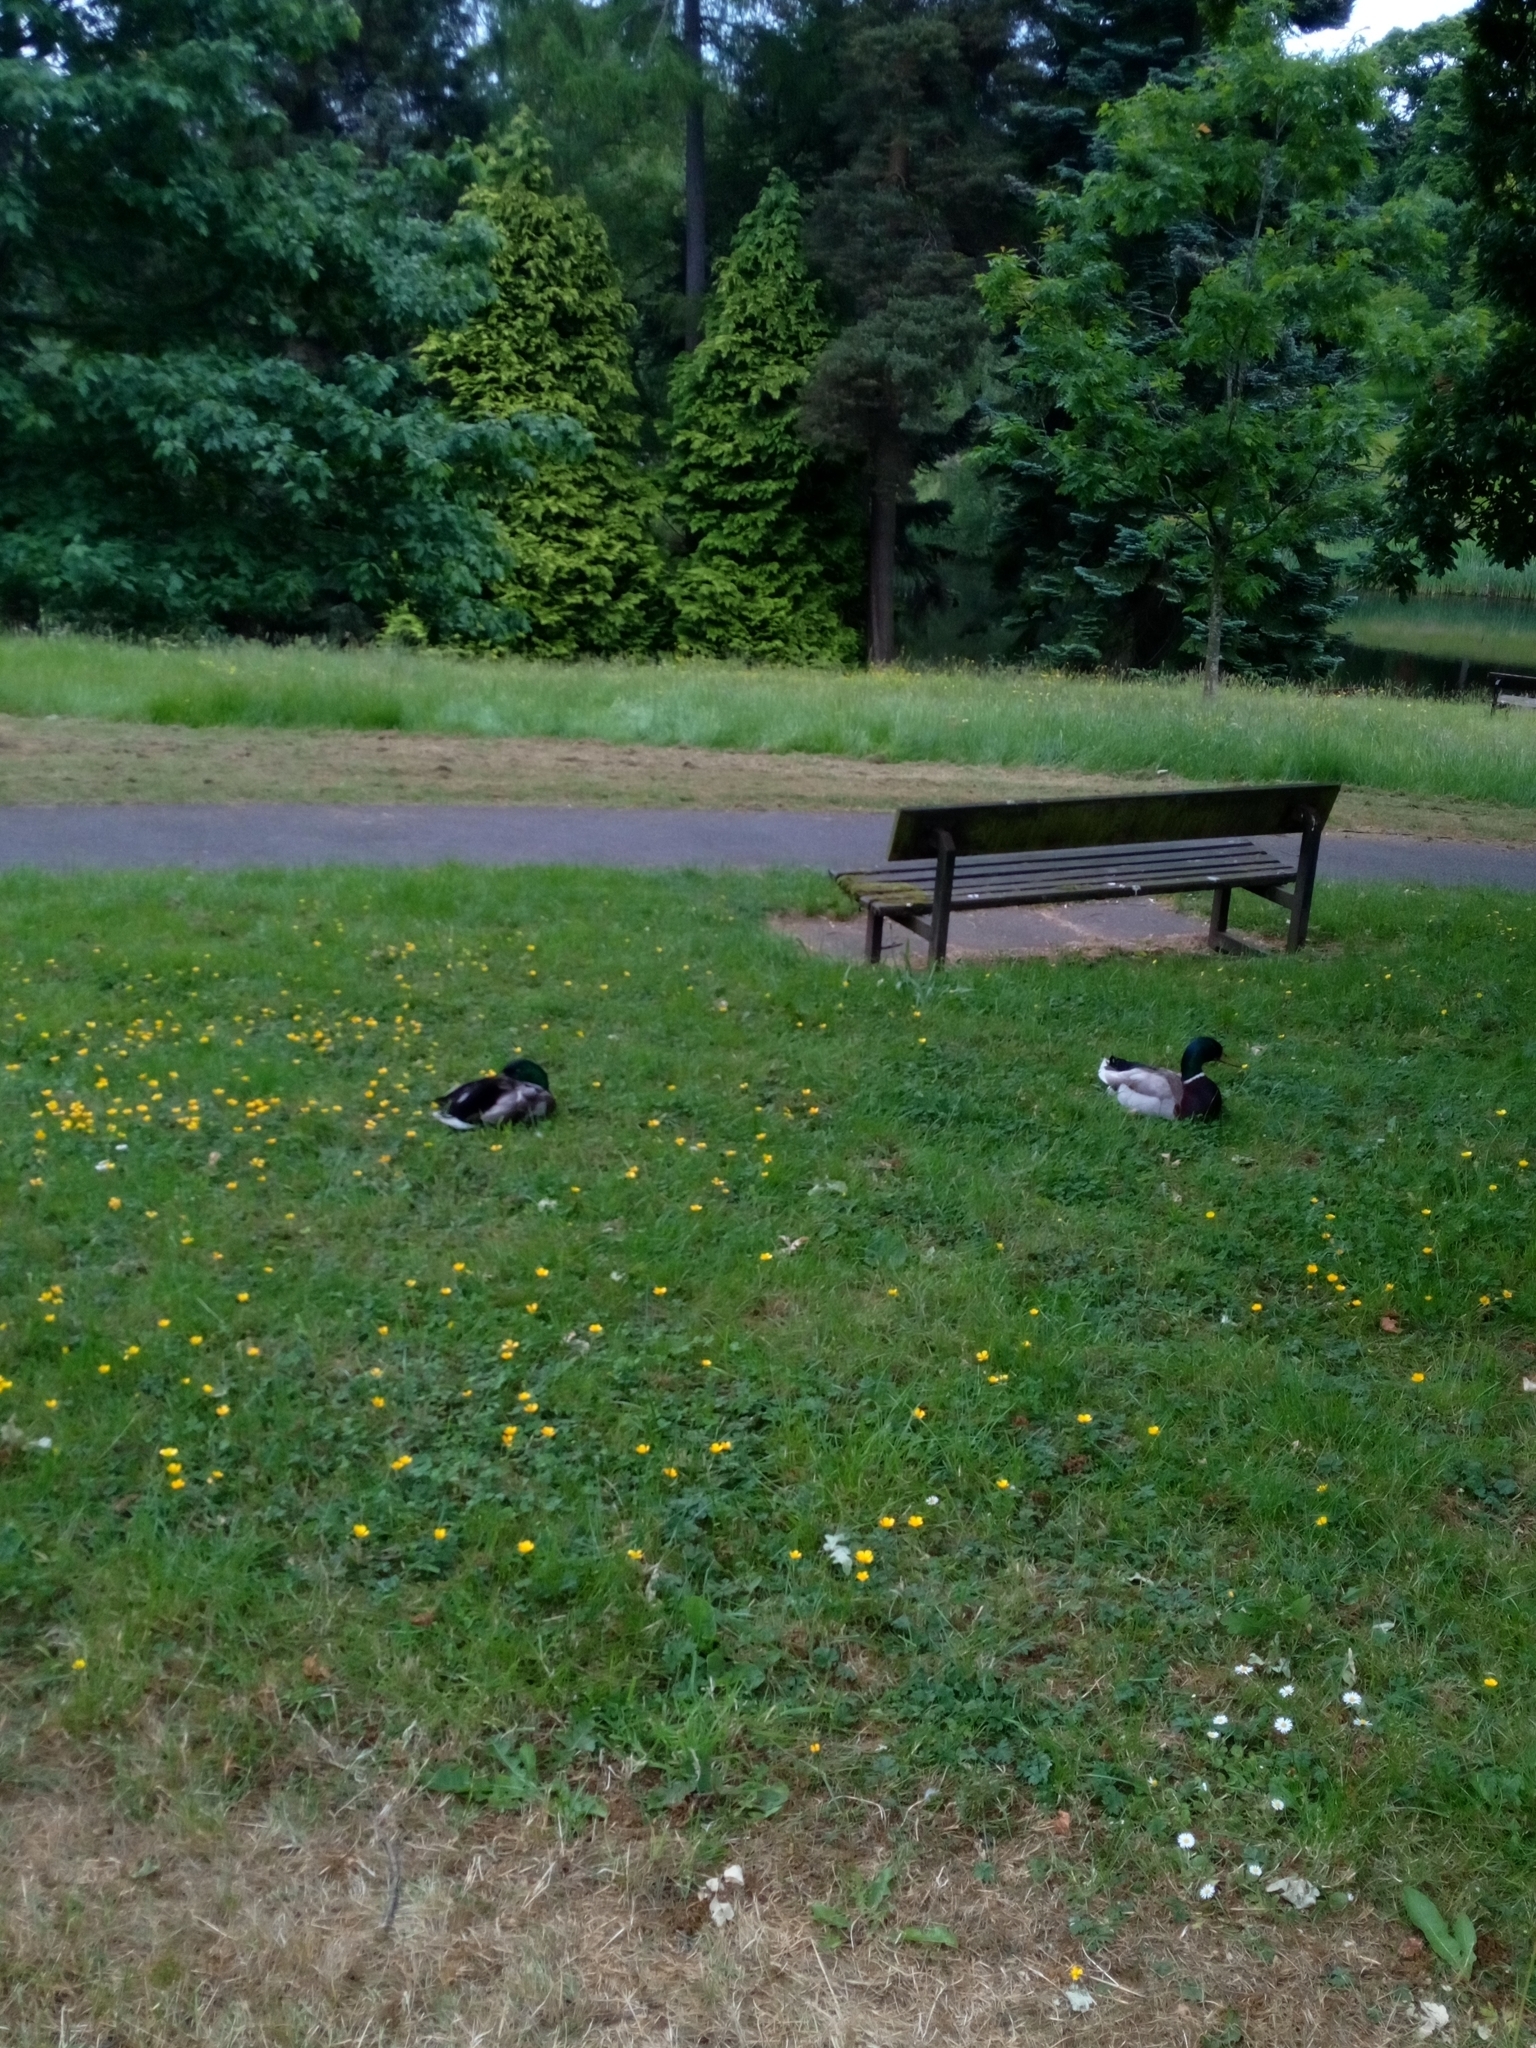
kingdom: Animalia
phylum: Chordata
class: Aves
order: Anseriformes
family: Anatidae
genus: Anas
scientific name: Anas platyrhynchos
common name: Mallard
